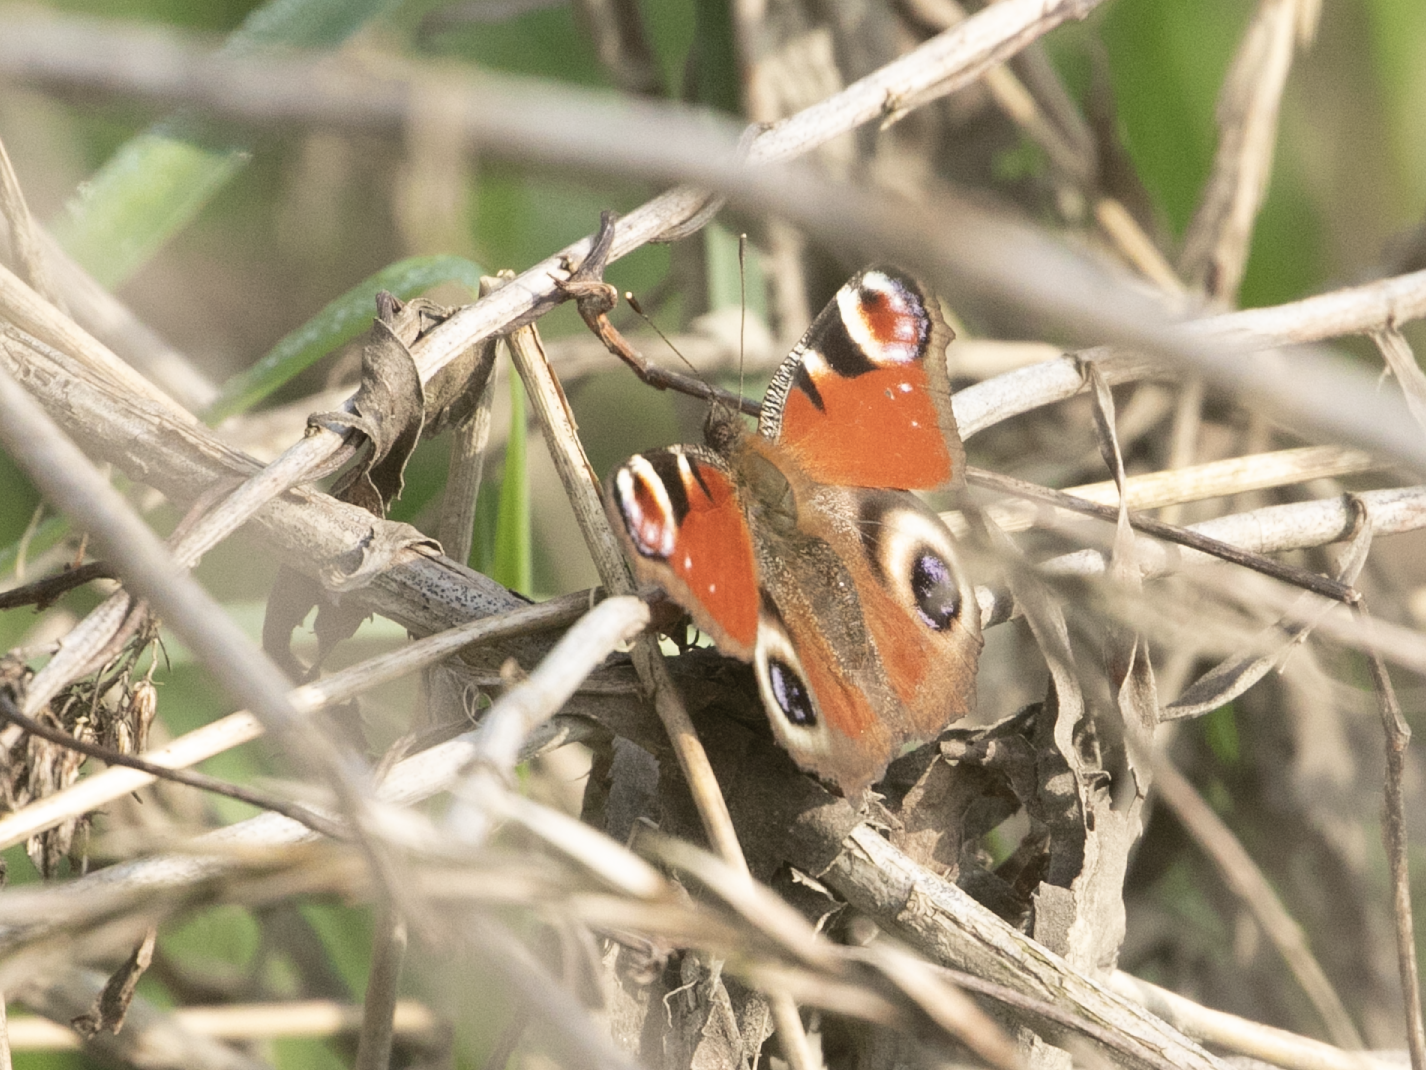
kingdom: Animalia
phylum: Arthropoda
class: Insecta
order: Lepidoptera
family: Nymphalidae
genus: Aglais
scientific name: Aglais io
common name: Peacock
